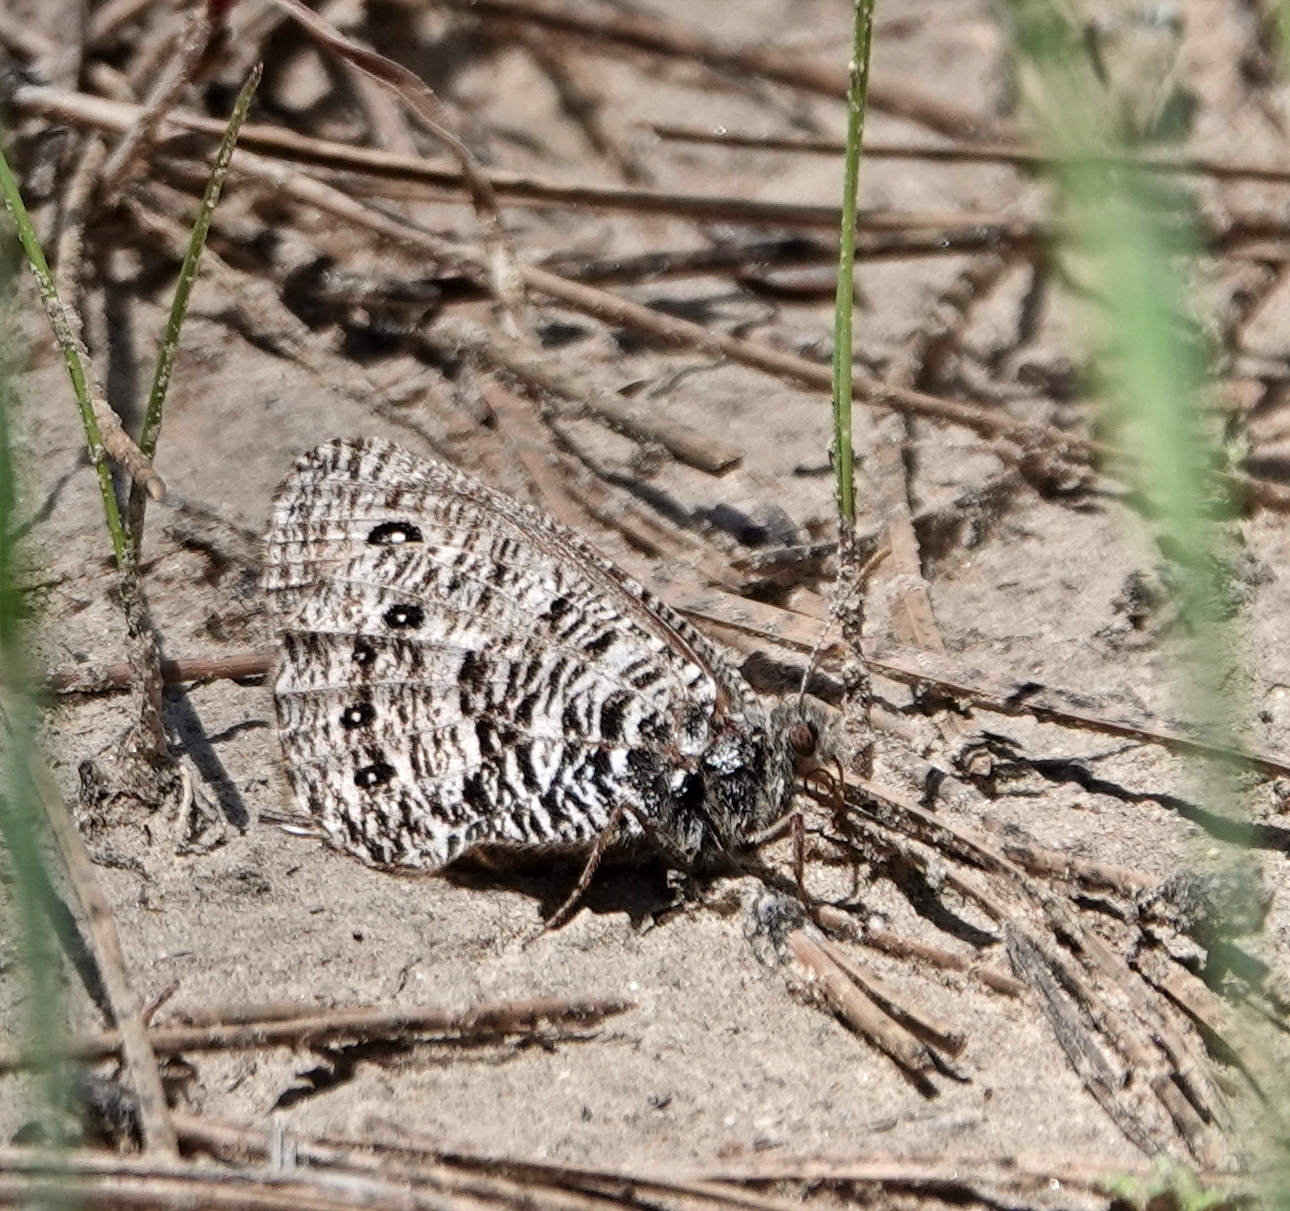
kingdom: Animalia
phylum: Arthropoda
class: Insecta
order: Lepidoptera
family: Nymphalidae
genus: Oeneis
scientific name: Oeneis uhleri
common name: Uhler's arctic
